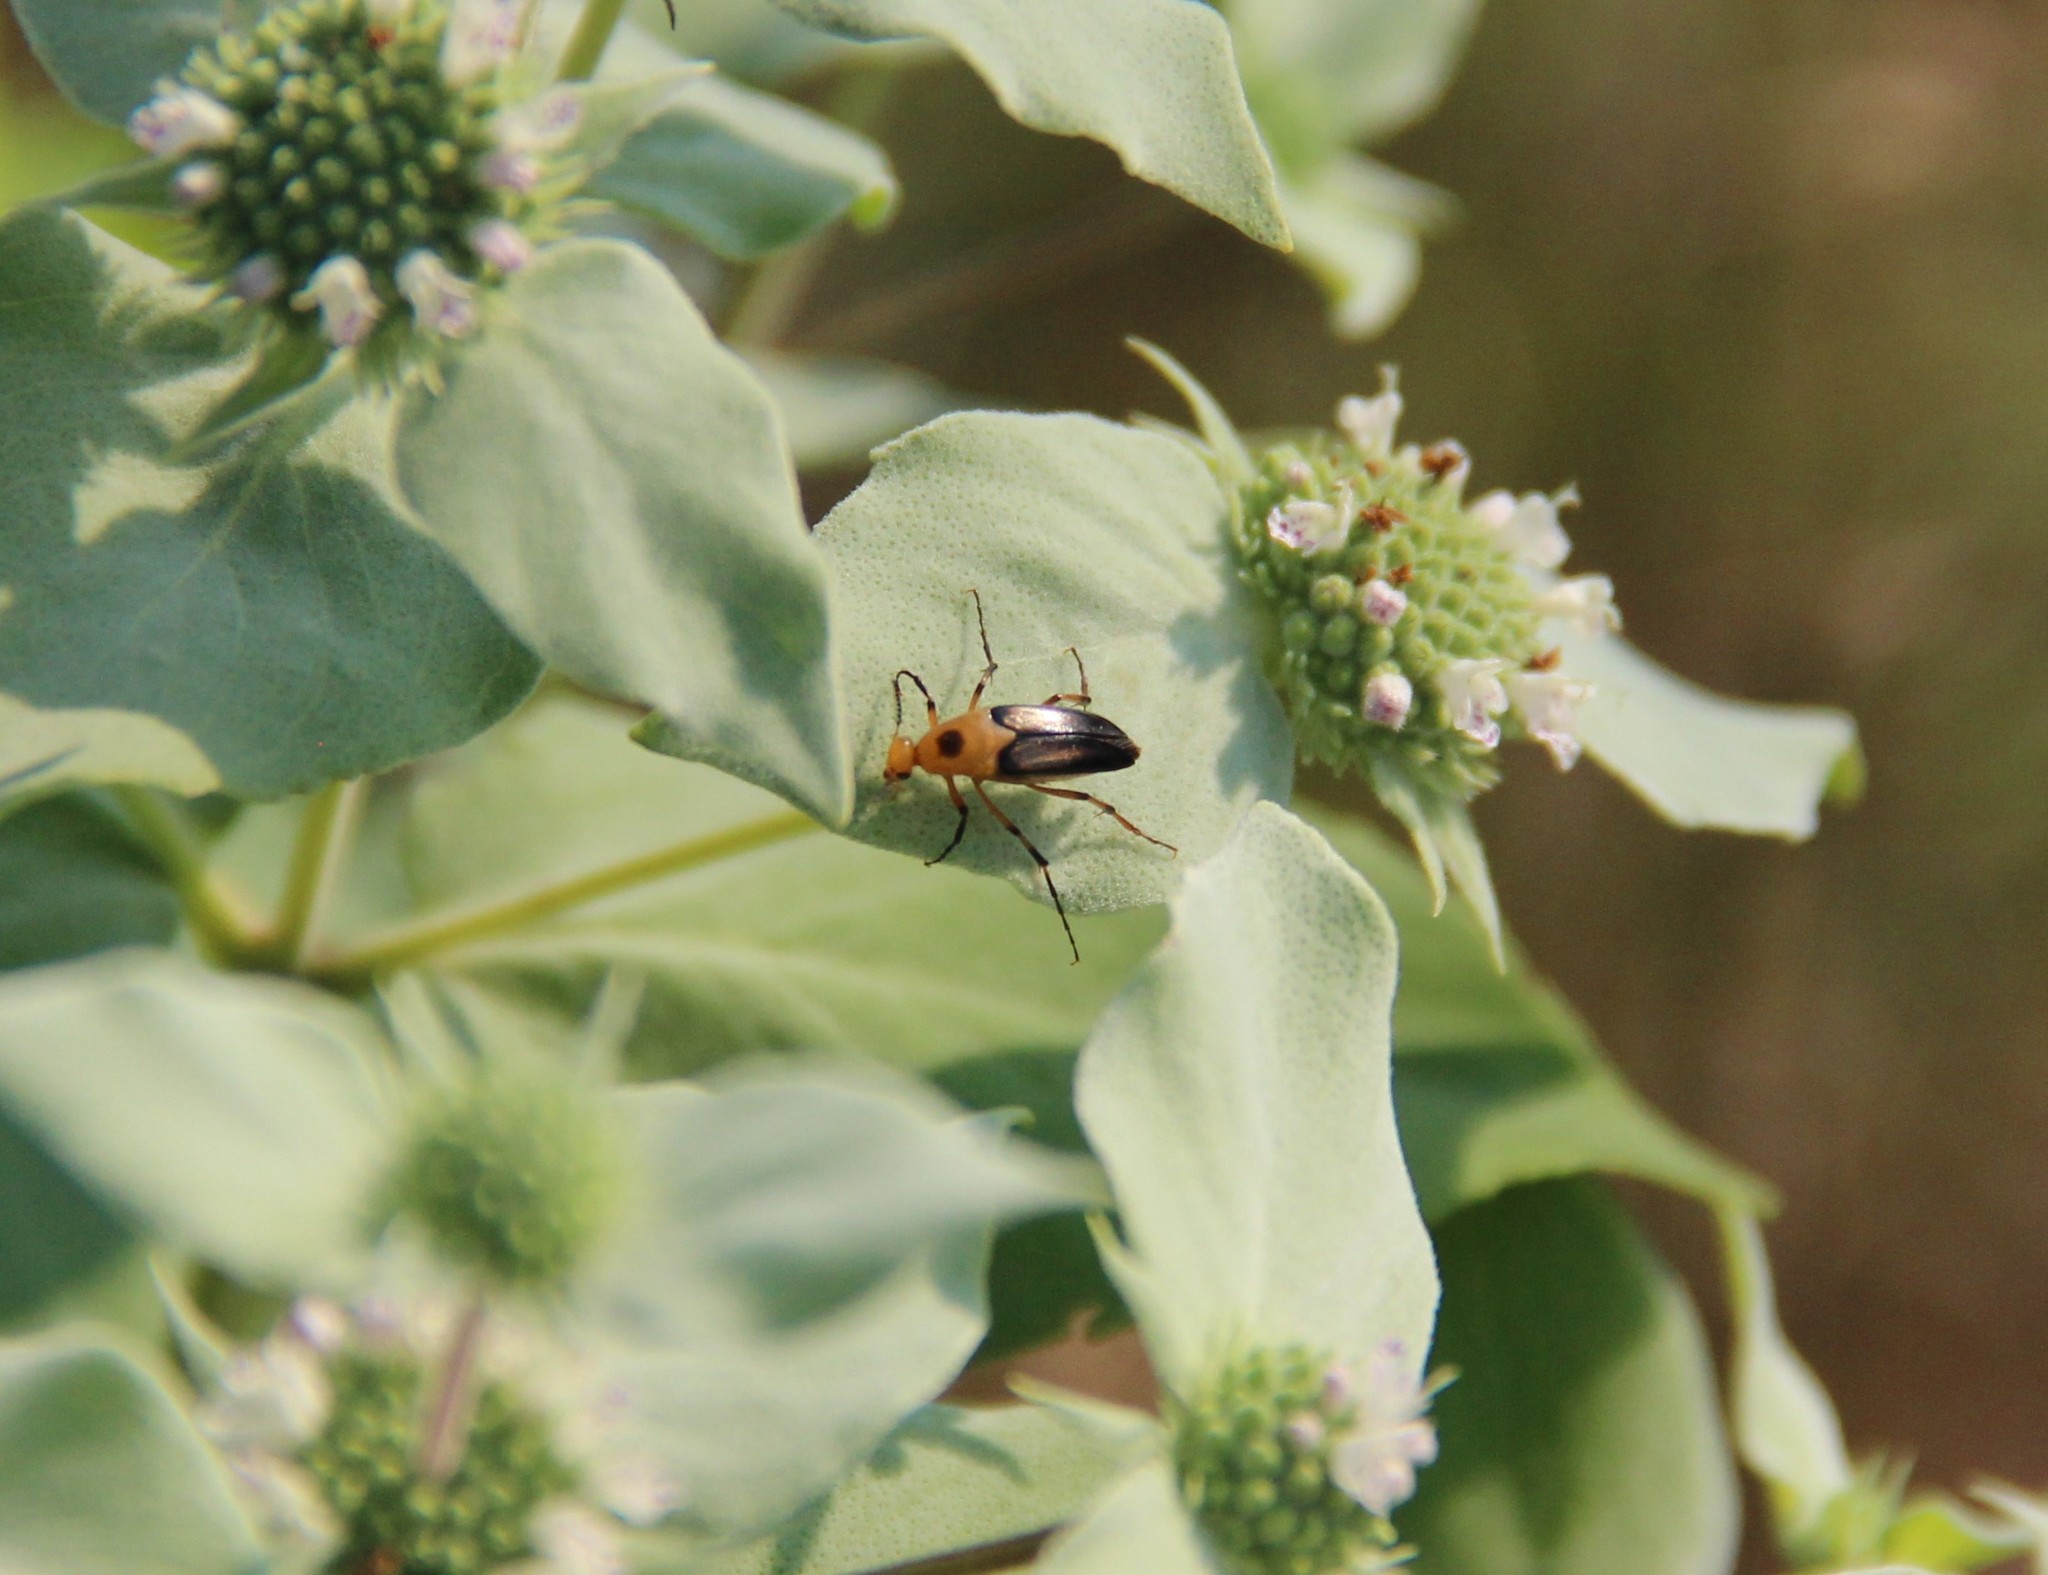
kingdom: Animalia
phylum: Arthropoda
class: Insecta
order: Coleoptera
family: Ripiphoridae
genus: Macrosiagon
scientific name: Macrosiagon limbatum
